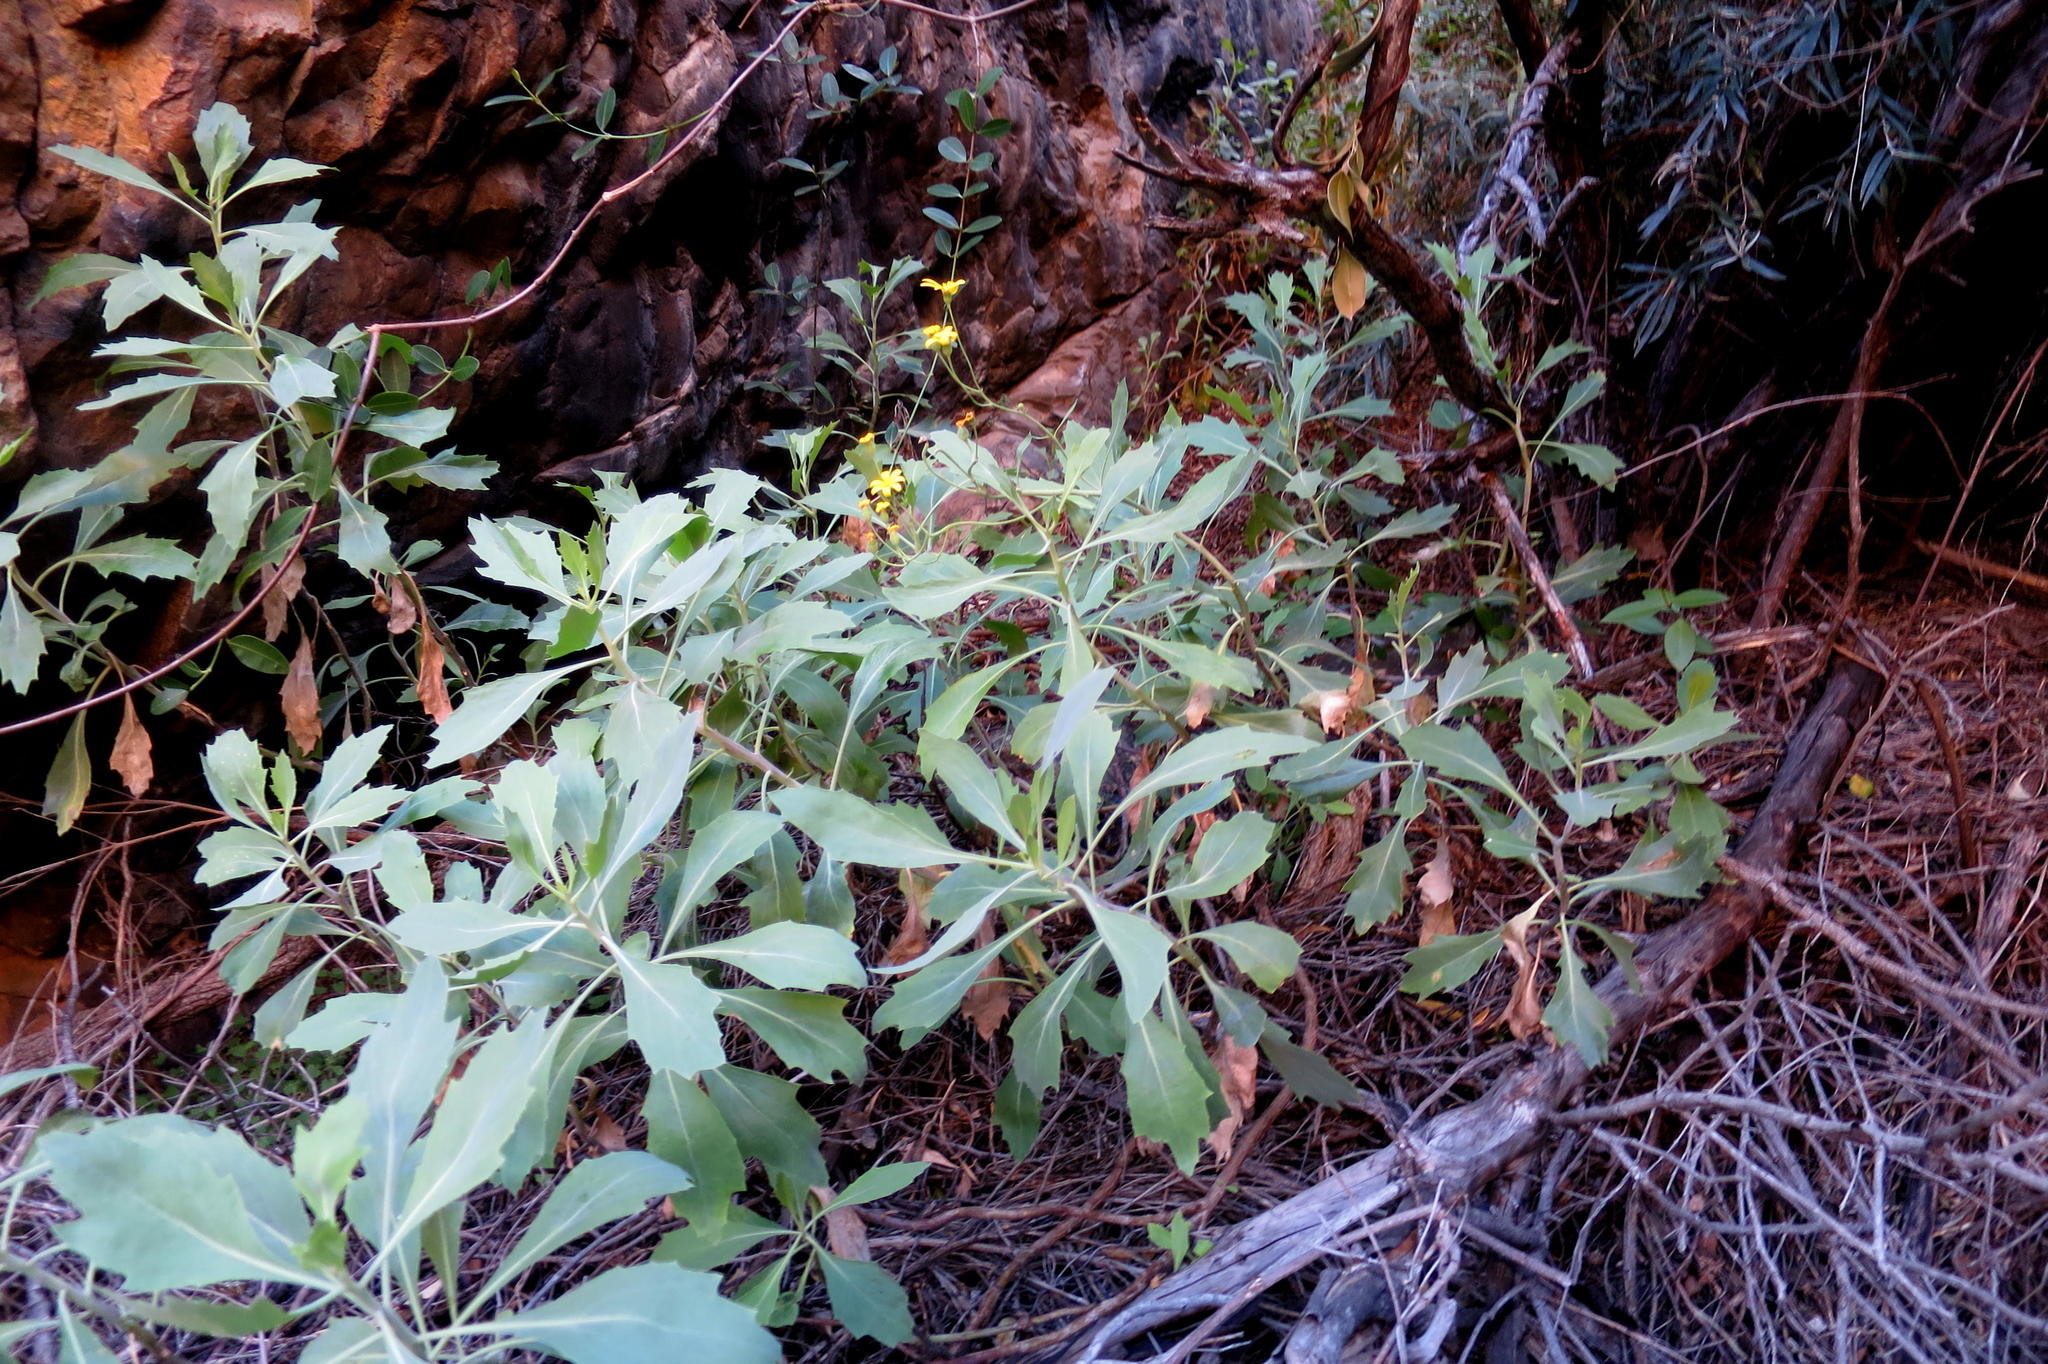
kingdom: Plantae
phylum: Tracheophyta
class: Magnoliopsida
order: Asterales
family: Asteraceae
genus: Othonna
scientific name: Othonna osteospermoides
